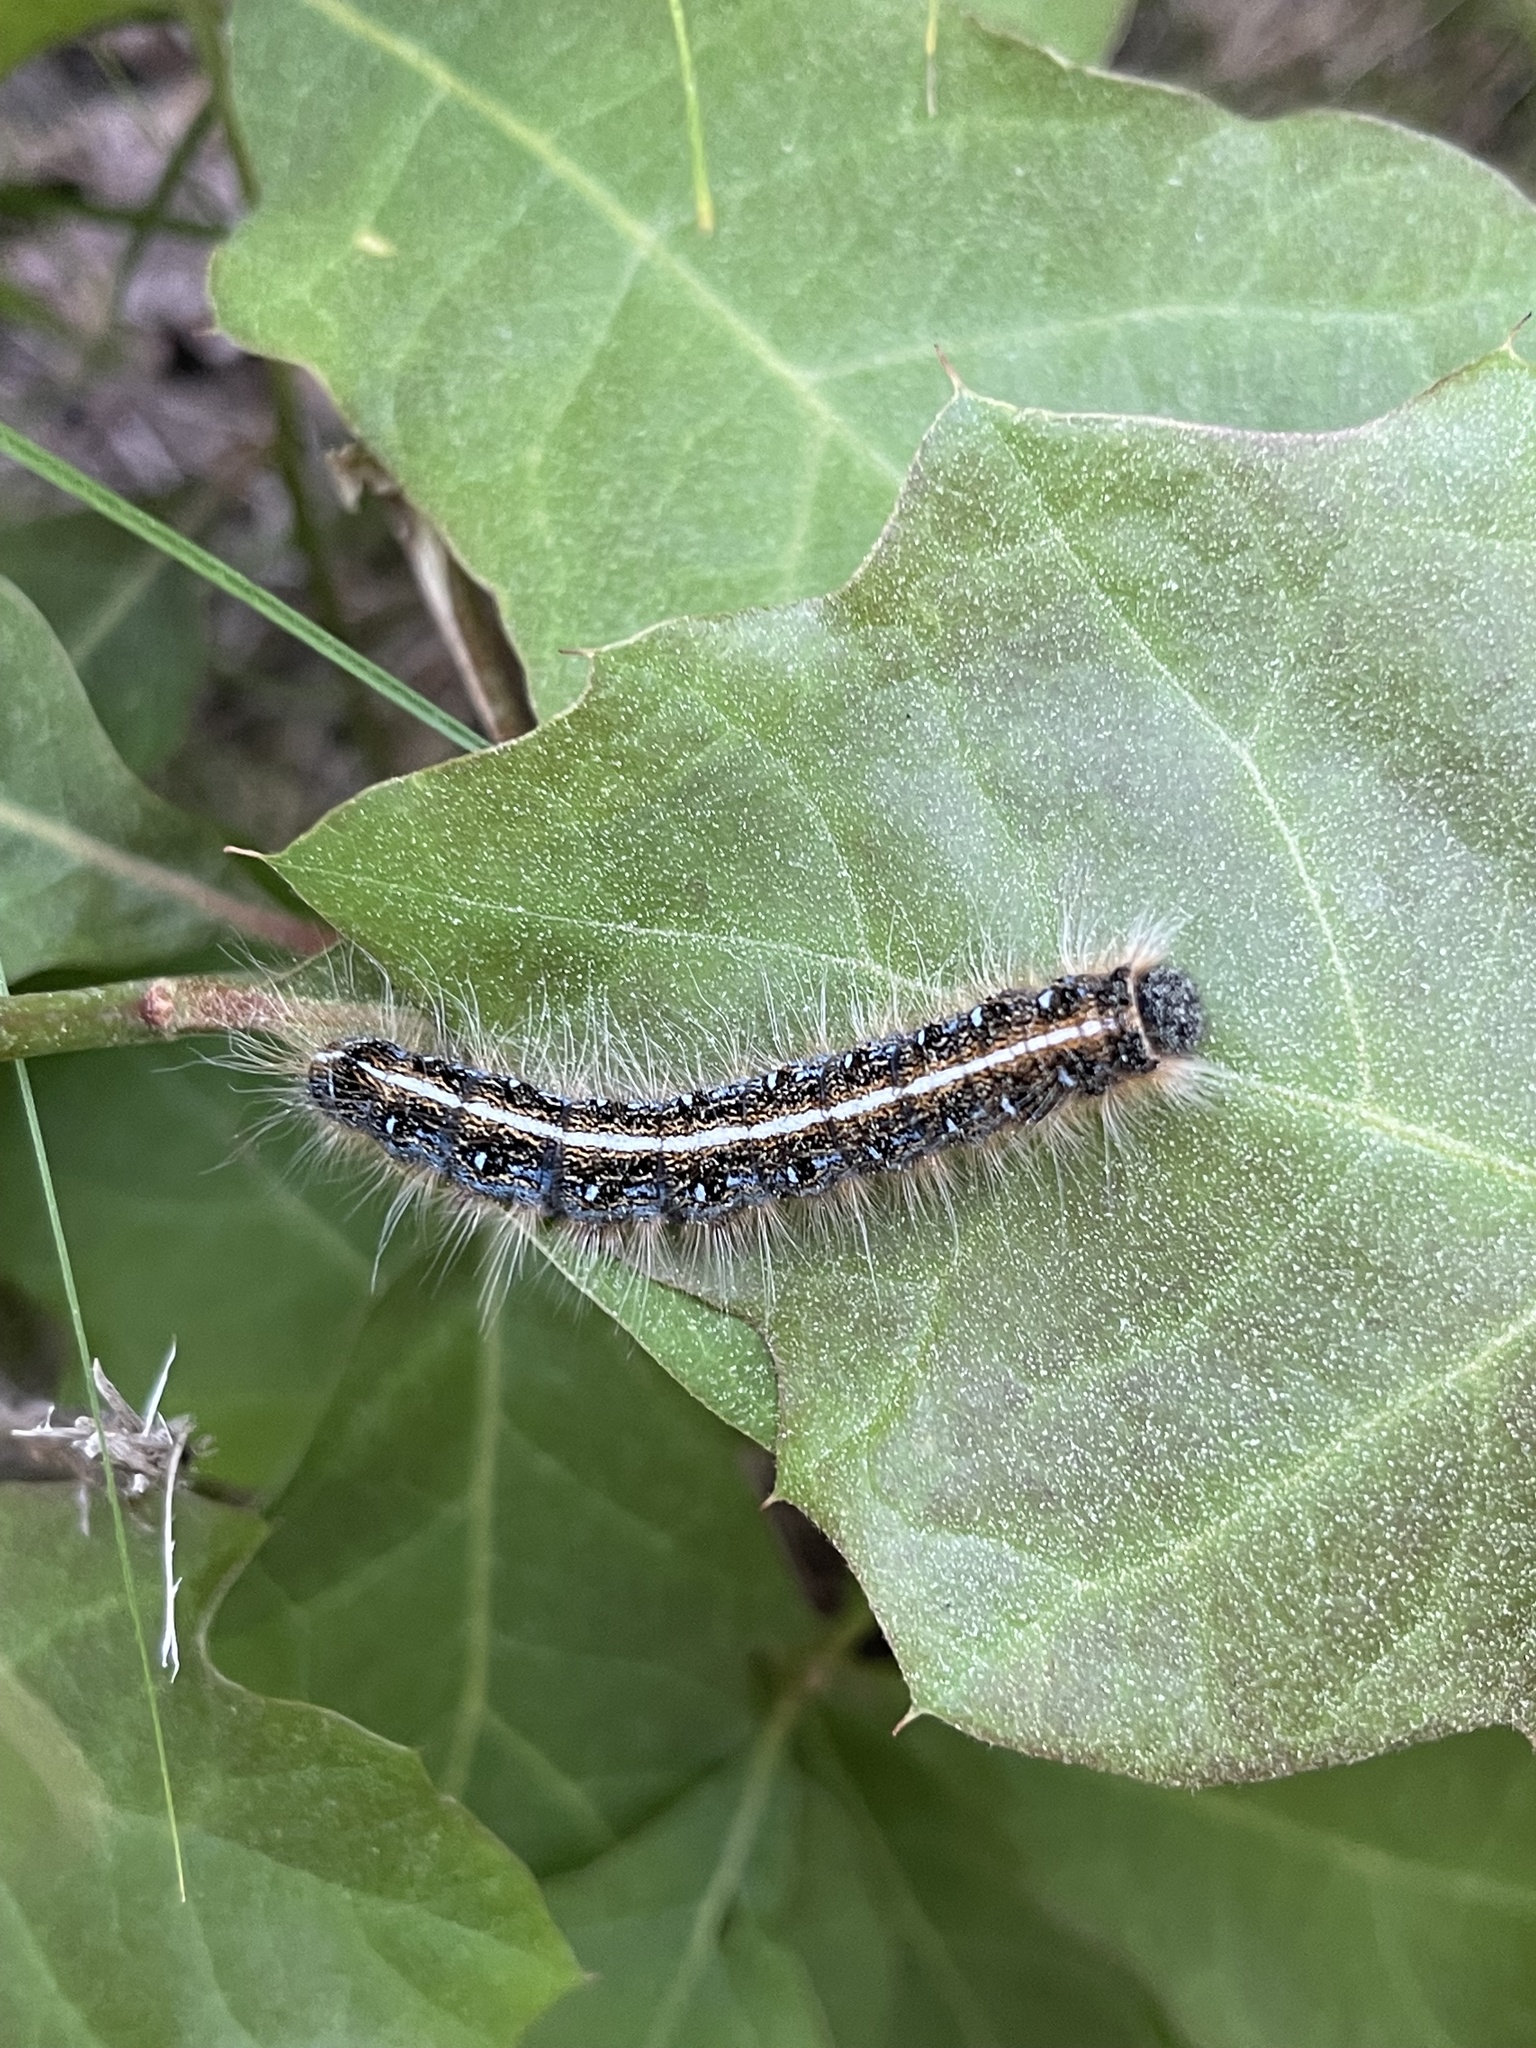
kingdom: Animalia
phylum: Arthropoda
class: Insecta
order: Lepidoptera
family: Lasiocampidae
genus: Malacosoma
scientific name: Malacosoma americana
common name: Eastern tent caterpillar moth
